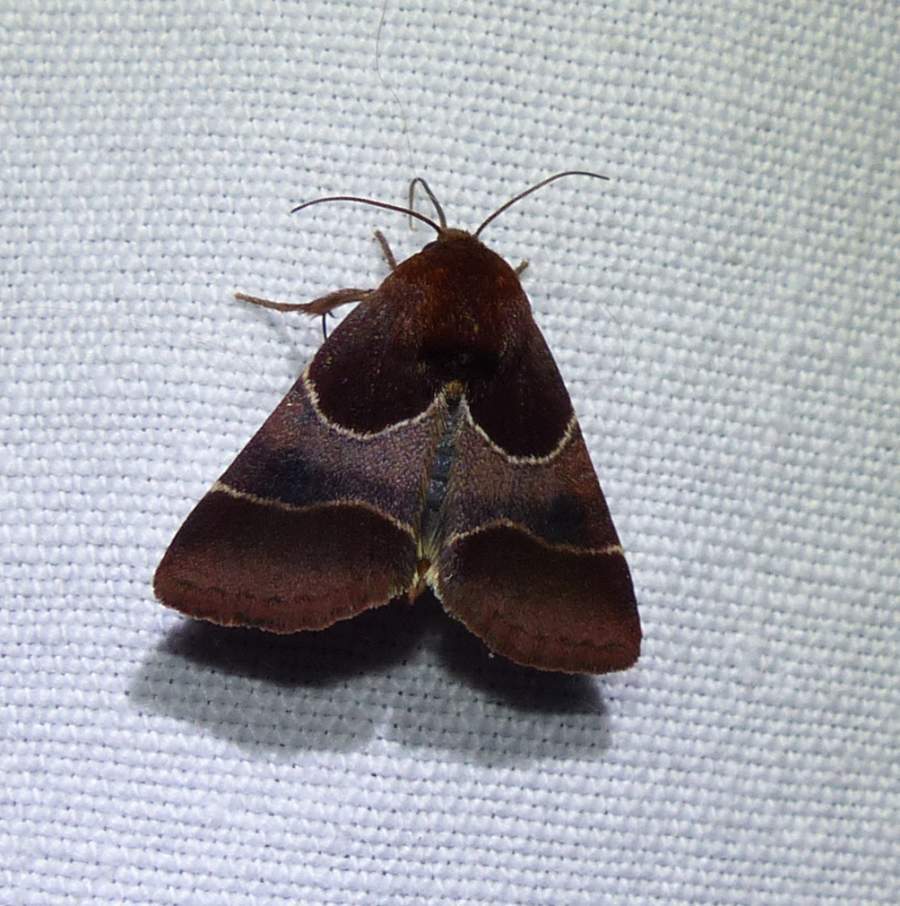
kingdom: Animalia
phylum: Arthropoda
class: Insecta
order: Lepidoptera
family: Noctuidae
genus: Schinia
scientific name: Schinia arcigera
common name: Arcigera flower moth
